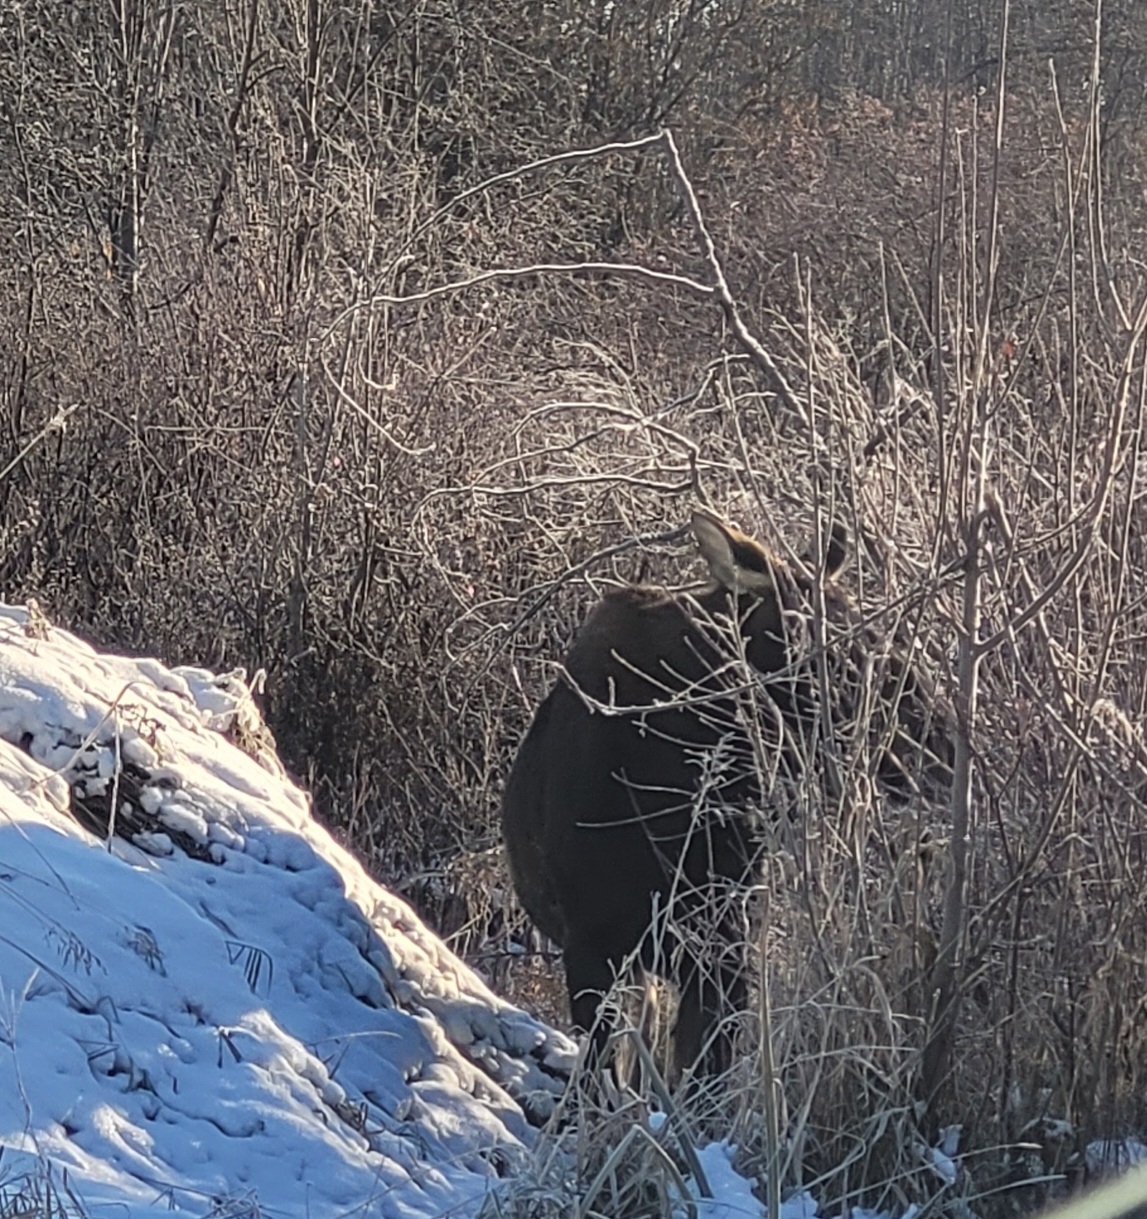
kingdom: Animalia
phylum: Chordata
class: Mammalia
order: Artiodactyla
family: Cervidae
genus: Alces
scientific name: Alces americanus
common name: Moose
